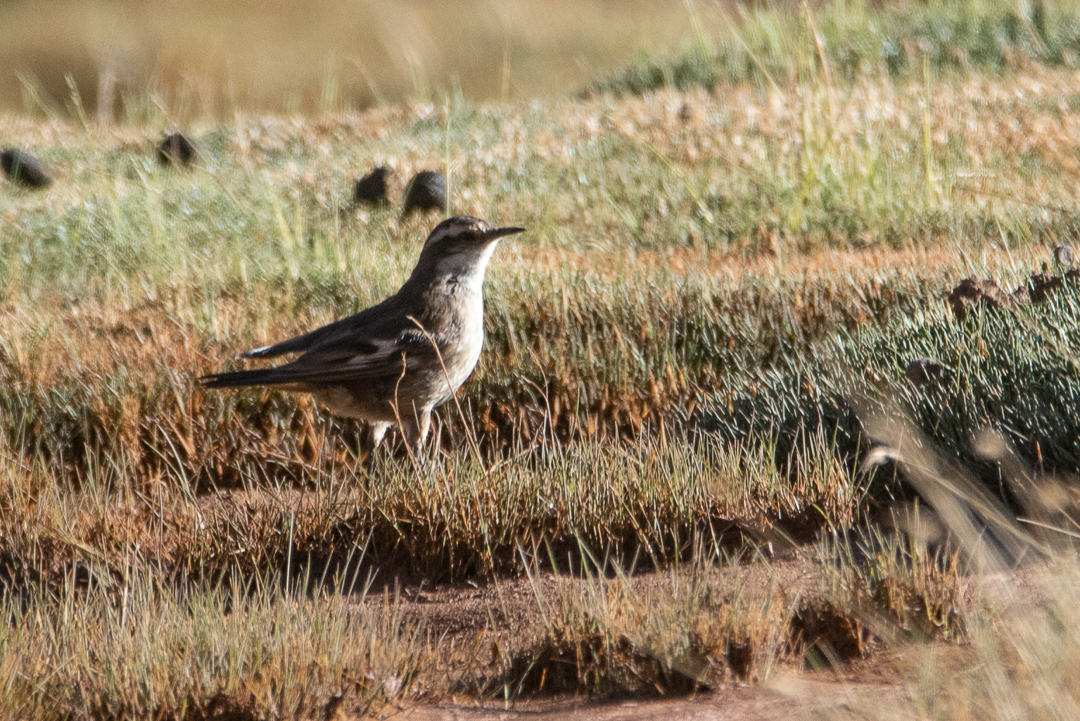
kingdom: Animalia
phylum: Chordata
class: Aves
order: Passeriformes
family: Furnariidae
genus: Cinclodes
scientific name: Cinclodes fuscus
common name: Buff-winged cinclodes
